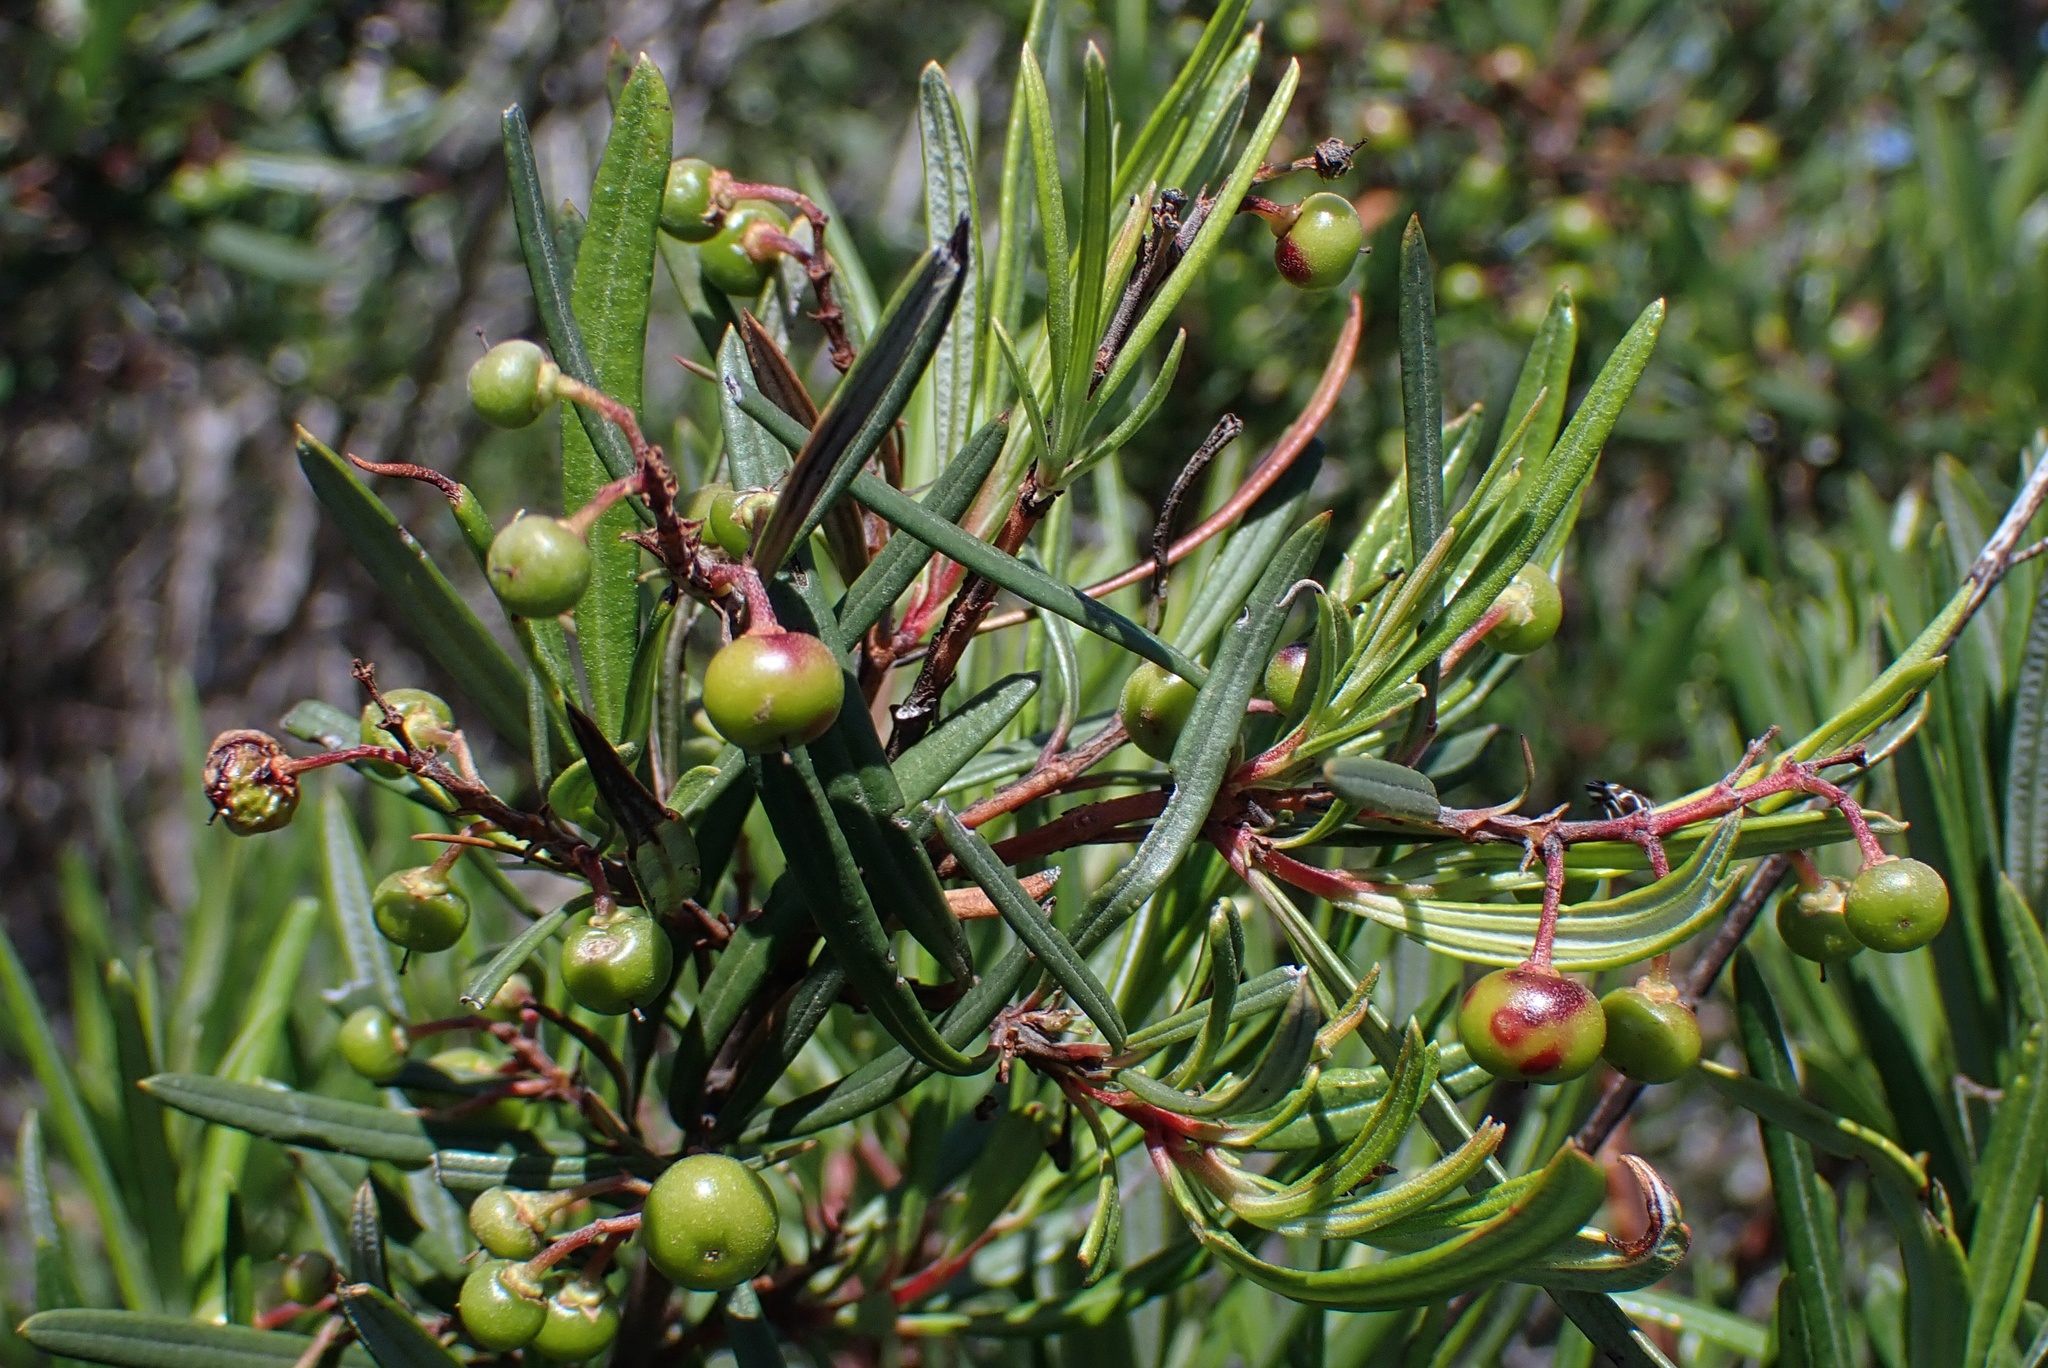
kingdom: Plantae
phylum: Tracheophyta
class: Magnoliopsida
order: Ericales
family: Ericaceae
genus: Ornithostaphylos
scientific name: Ornithostaphylos oppositifolia
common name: Baja california birdbush
